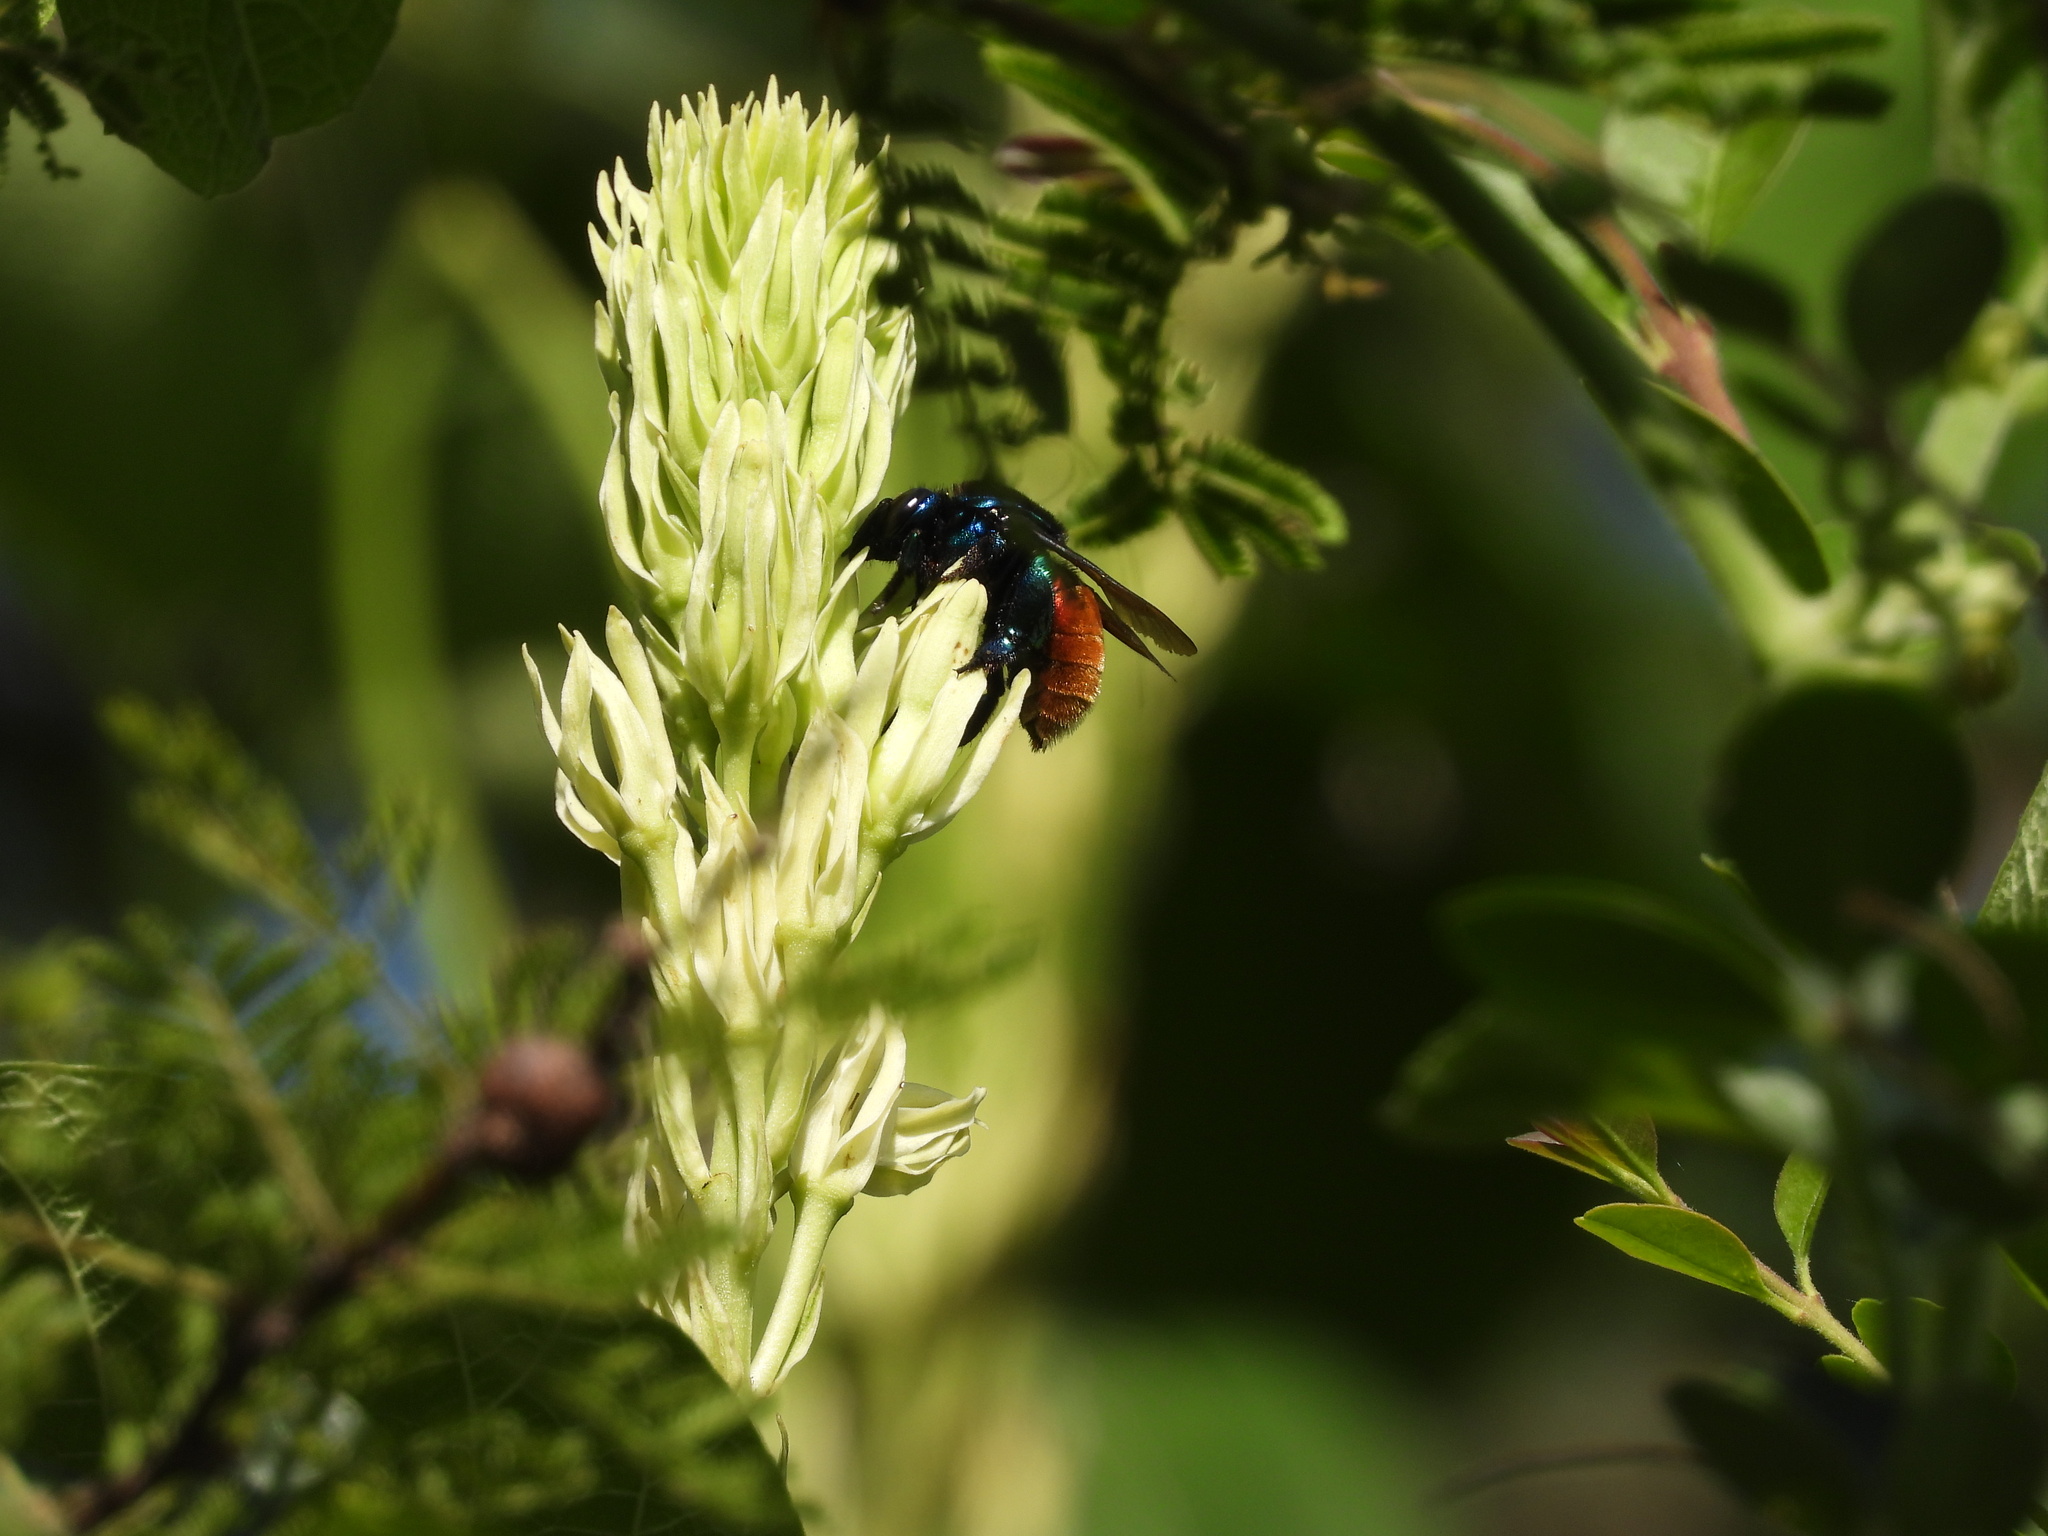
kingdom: Animalia
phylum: Arthropoda
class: Insecta
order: Hymenoptera
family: Apidae
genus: Eufriesea
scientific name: Eufriesea mariana
